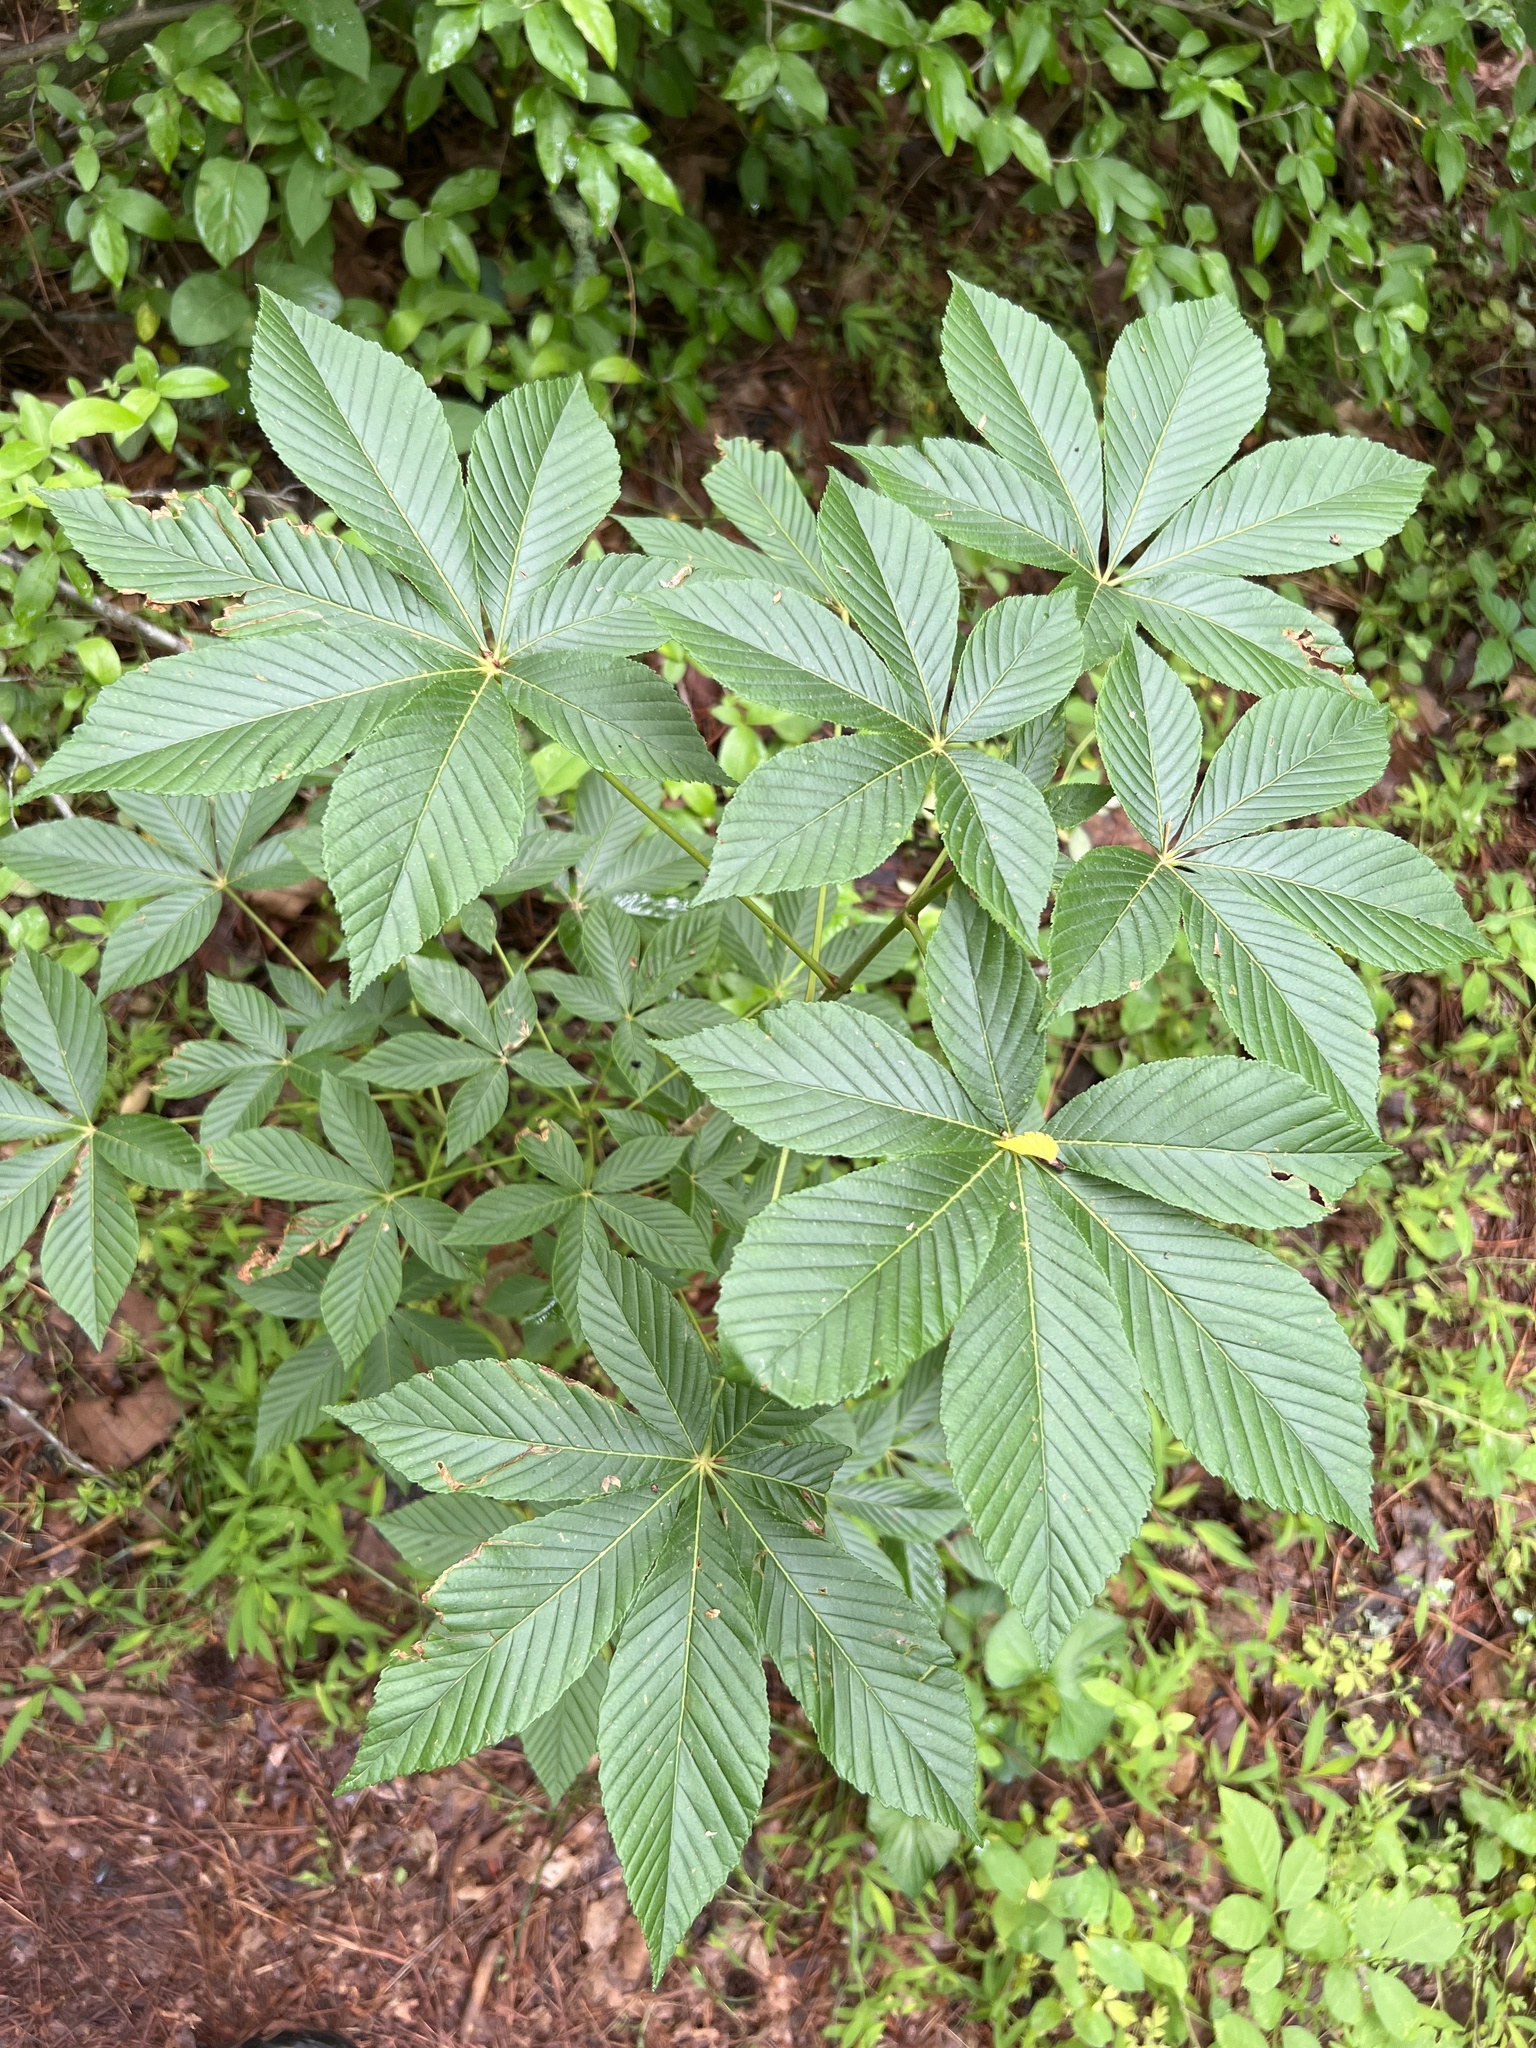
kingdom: Plantae
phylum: Tracheophyta
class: Magnoliopsida
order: Sapindales
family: Sapindaceae
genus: Aesculus
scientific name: Aesculus sylvatica
